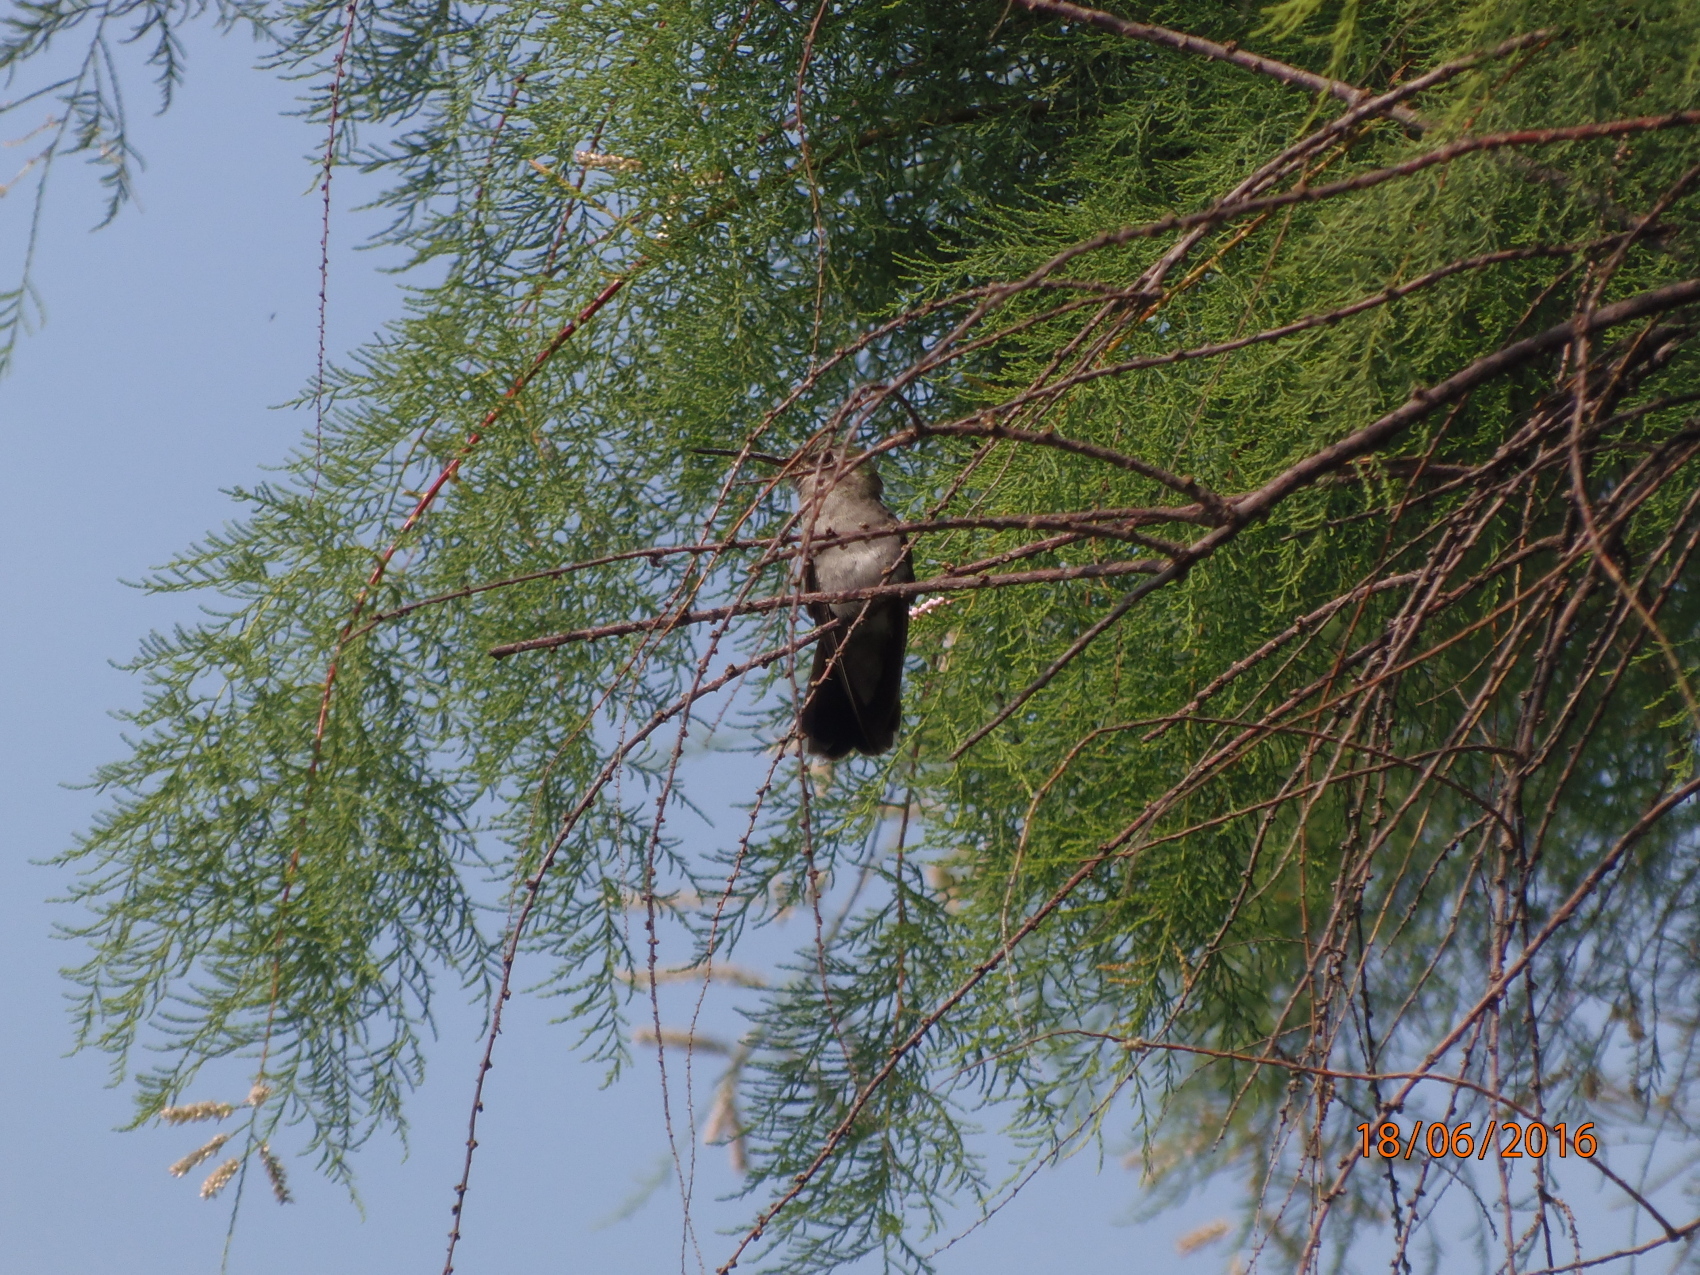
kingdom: Animalia
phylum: Chordata
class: Aves
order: Apodiformes
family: Trochilidae
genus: Cynanthus
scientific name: Cynanthus latirostris
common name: Broad-billed hummingbird
